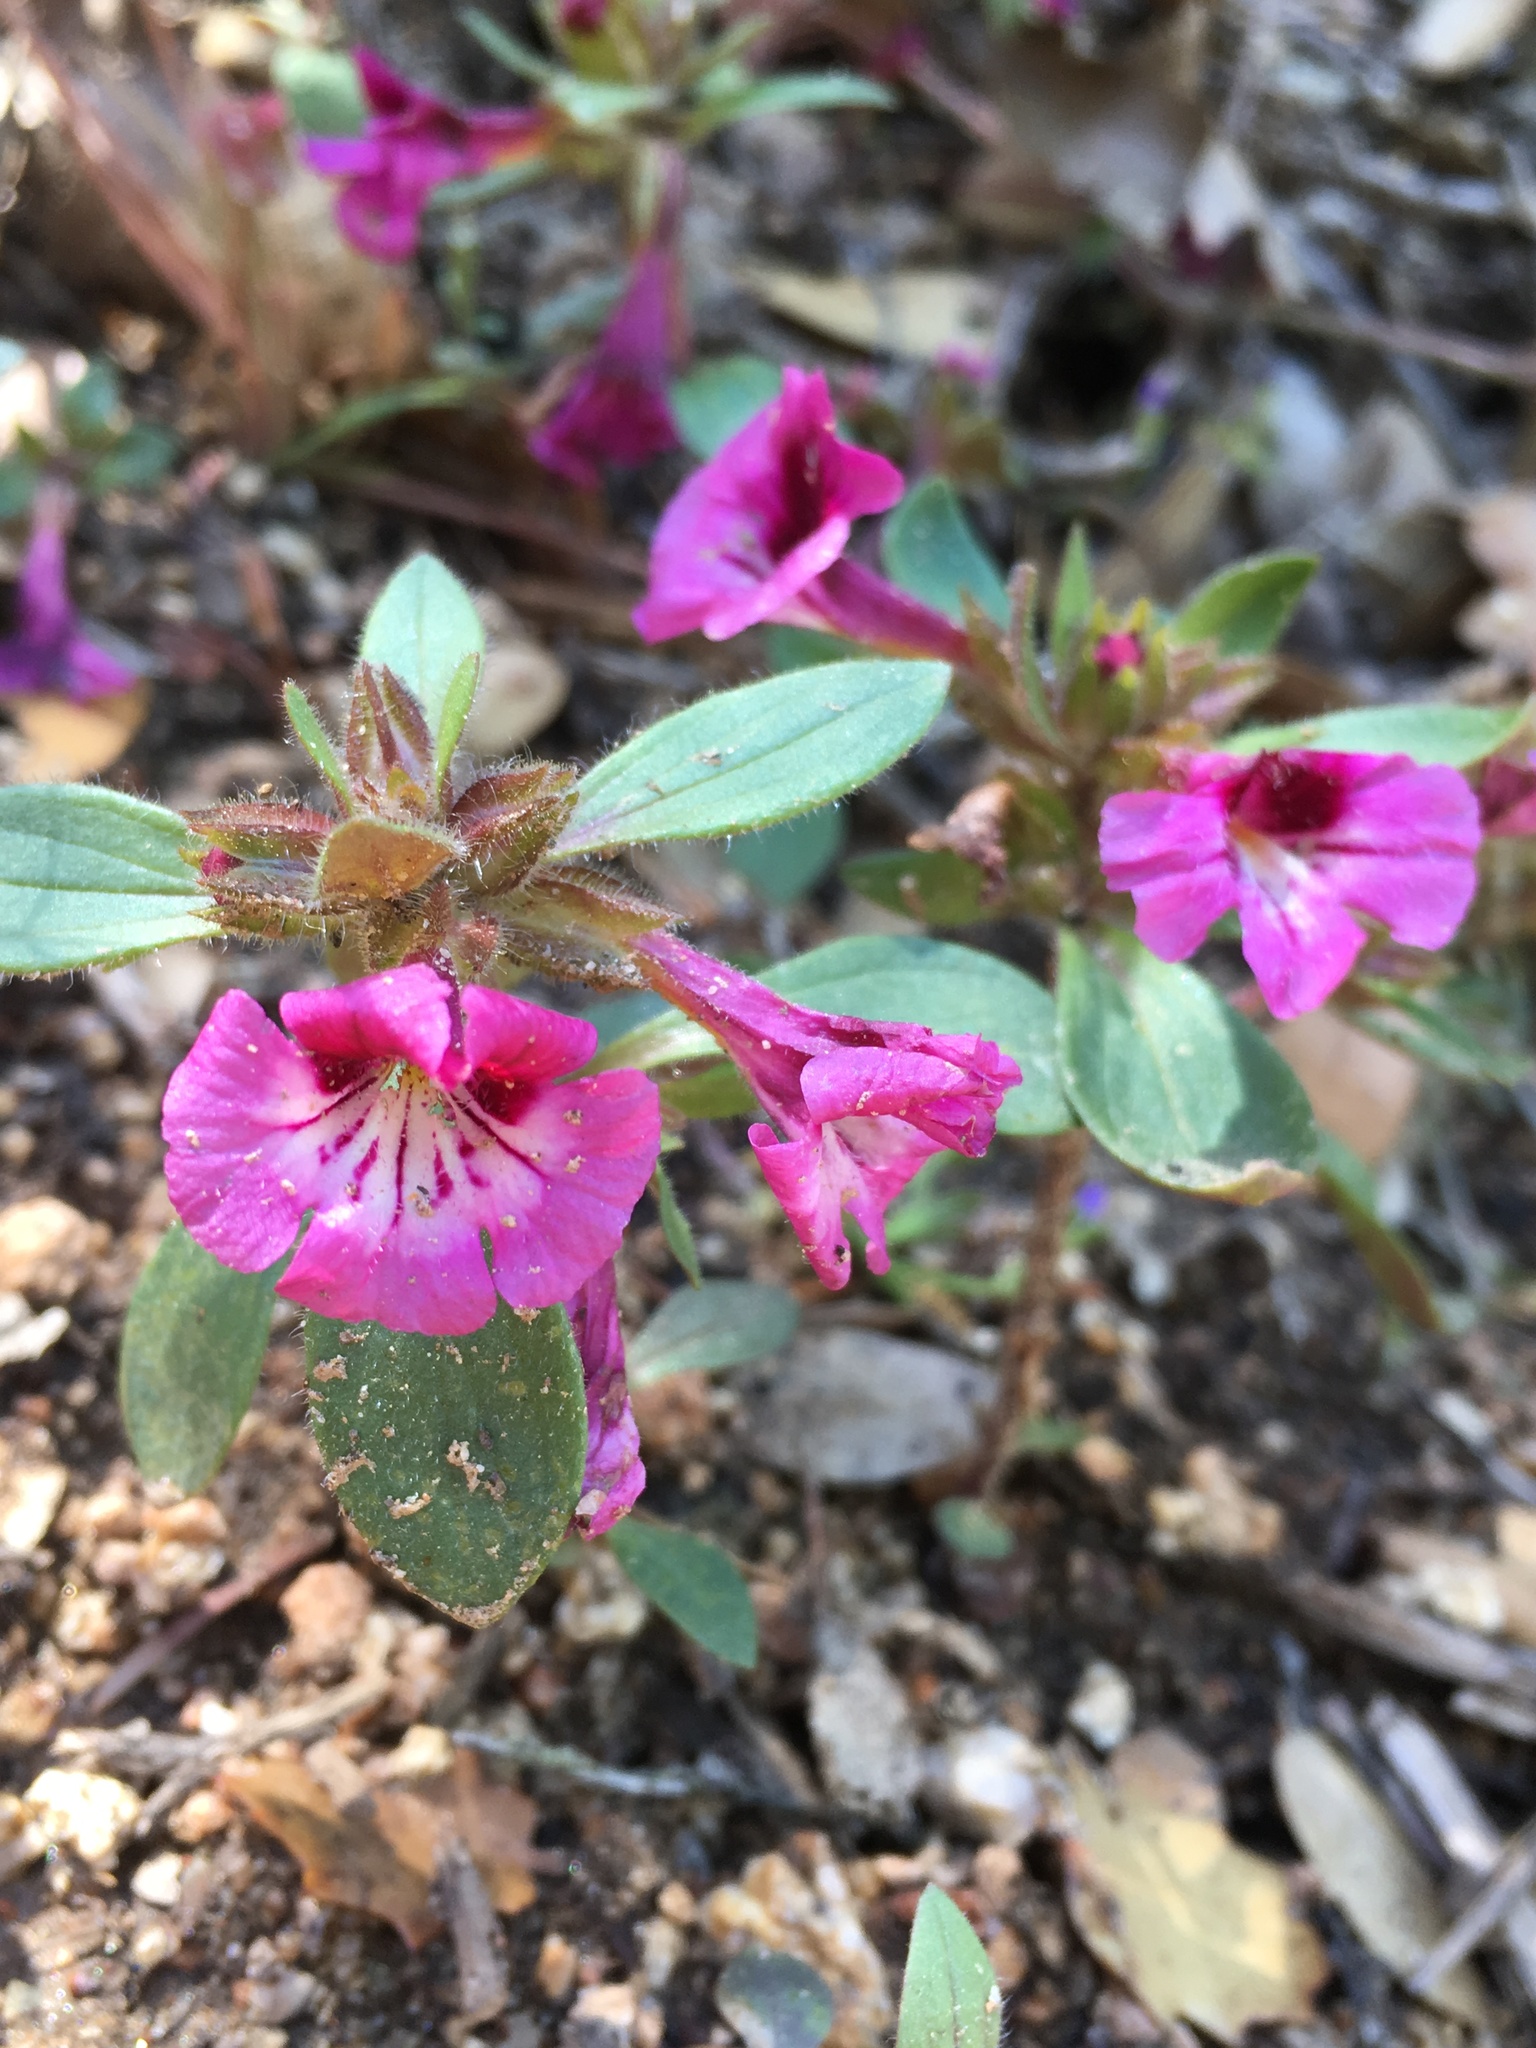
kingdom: Plantae
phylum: Tracheophyta
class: Magnoliopsida
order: Lamiales
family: Phrymaceae
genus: Diplacus
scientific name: Diplacus constrictus
